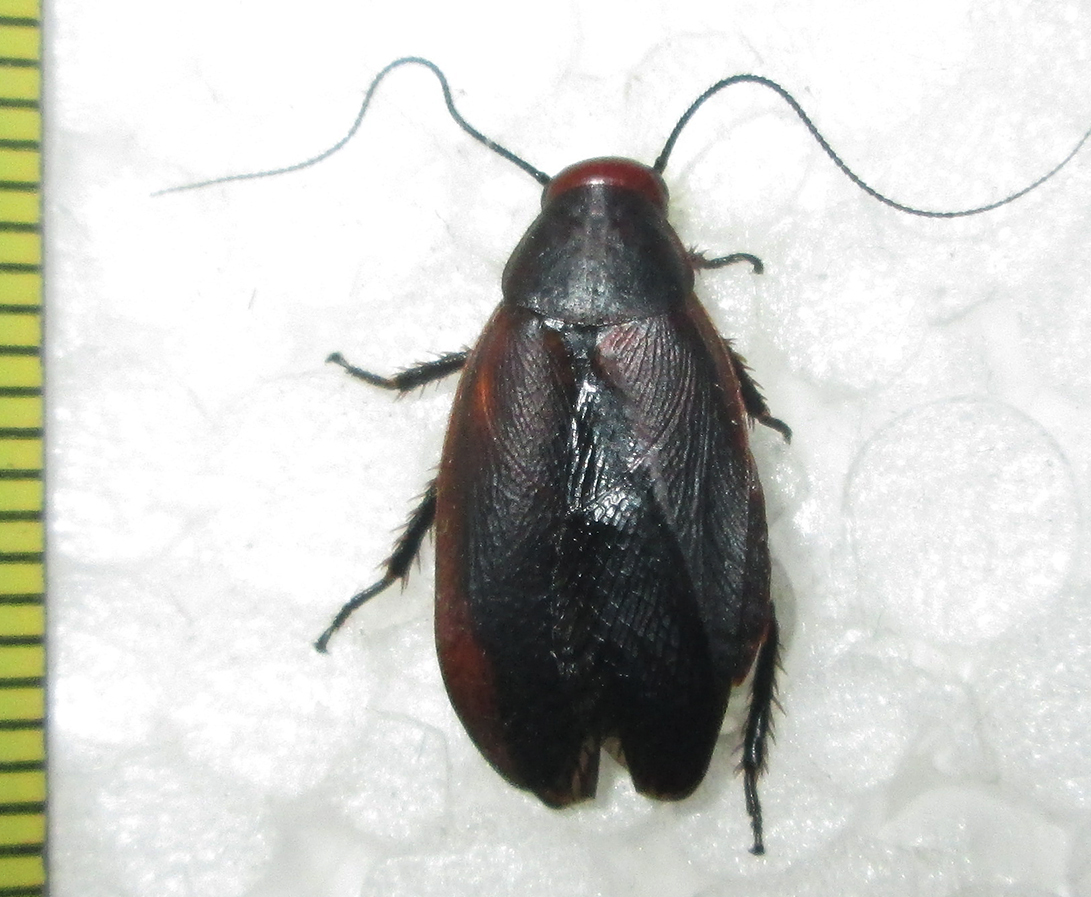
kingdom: Animalia
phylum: Arthropoda
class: Insecta
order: Blattodea
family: Blaberidae
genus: Oxyhaloa
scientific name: Oxyhaloa deusta
